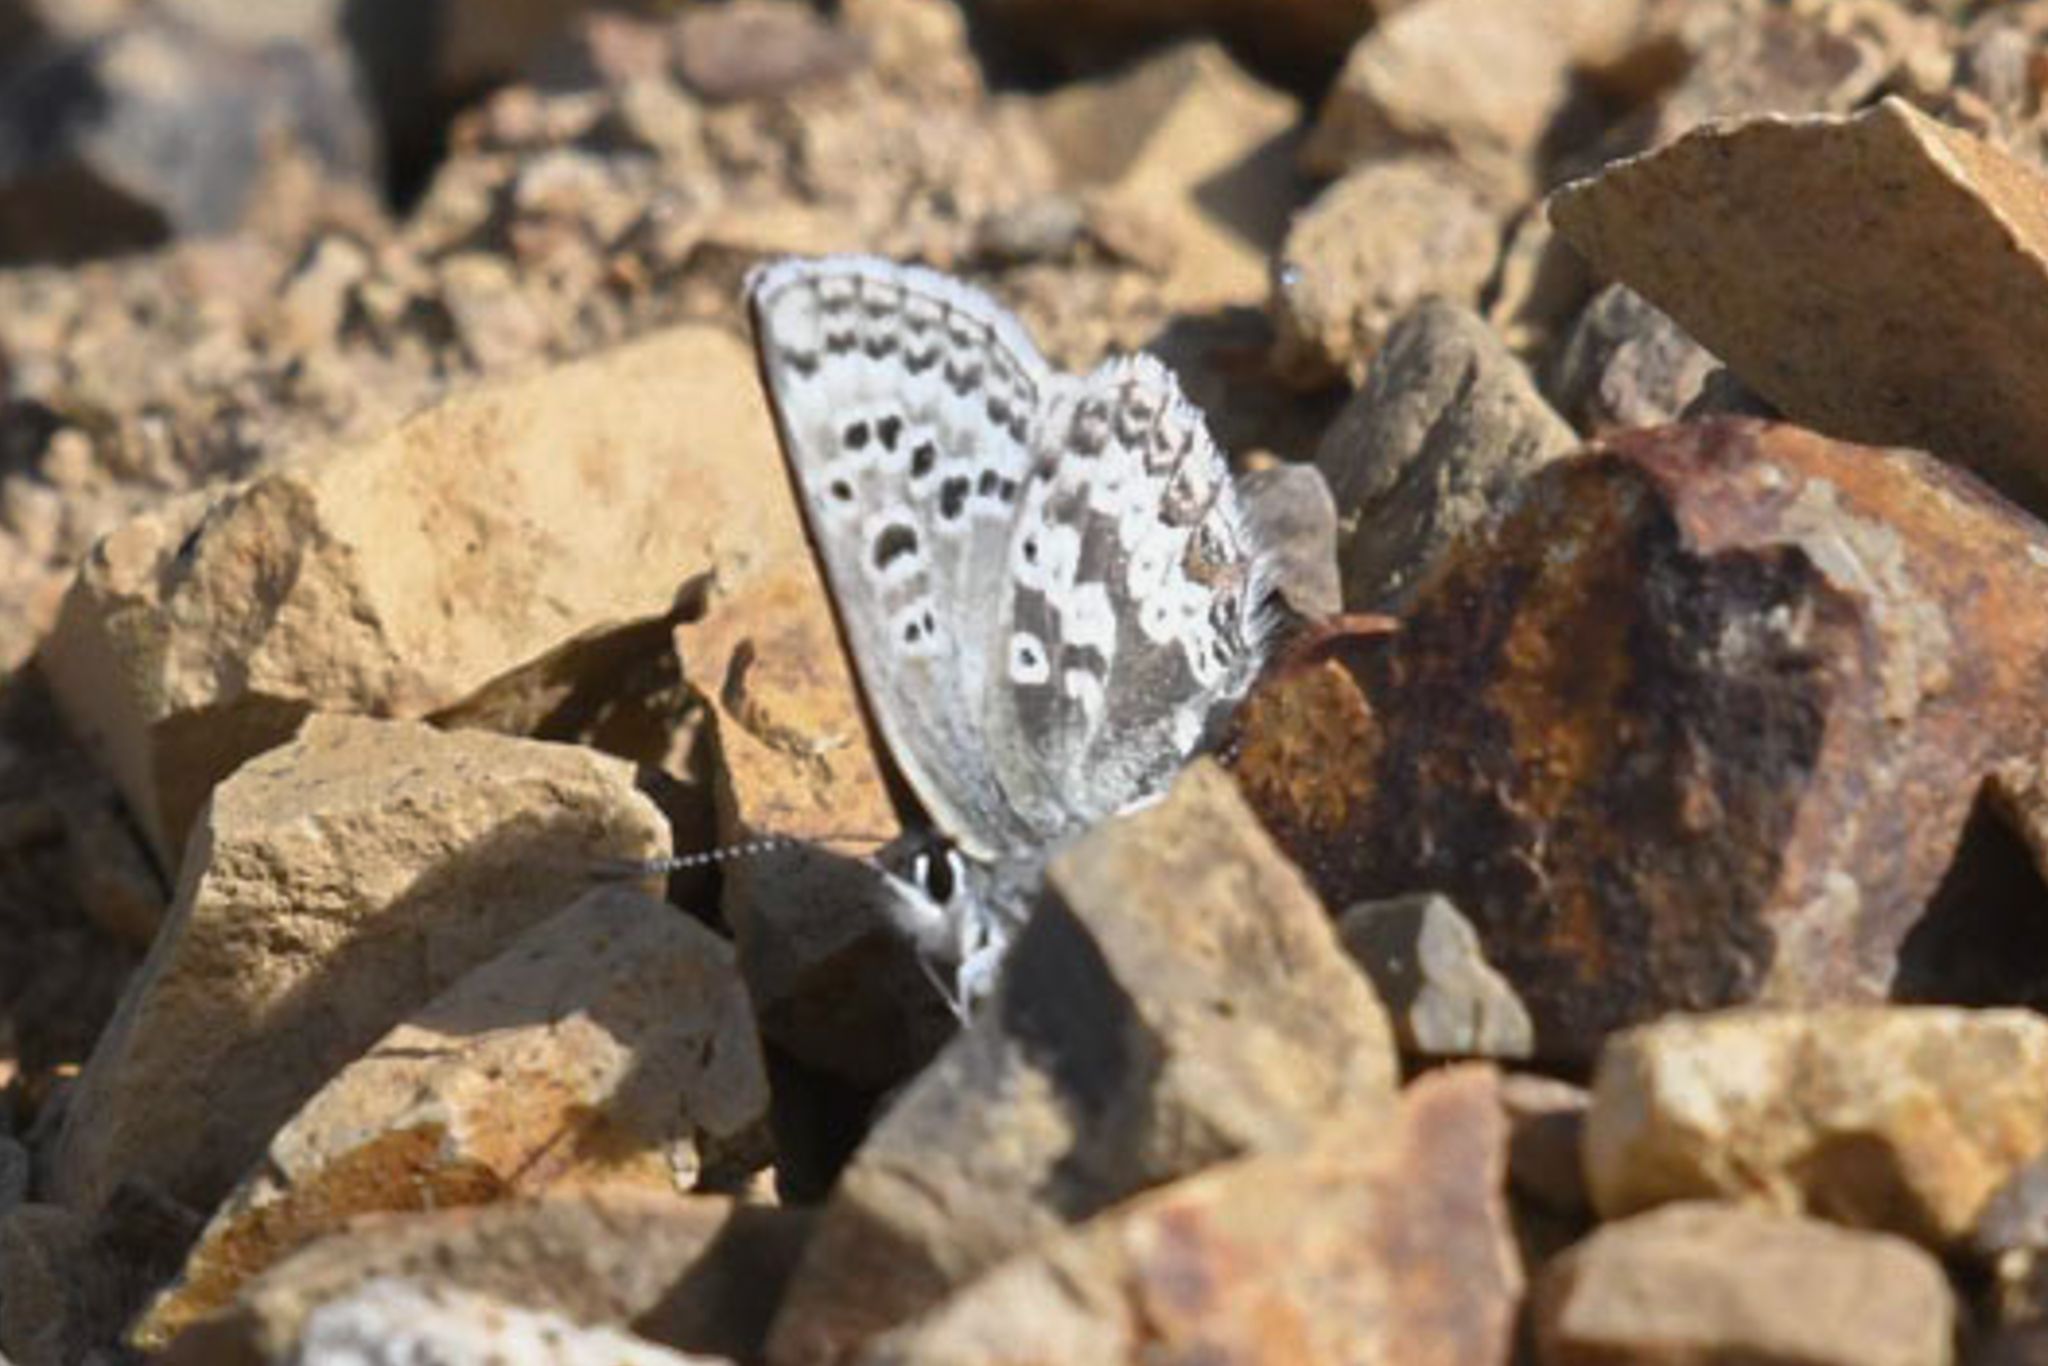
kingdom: Animalia
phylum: Arthropoda
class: Insecta
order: Lepidoptera
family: Lycaenidae
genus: Agriades
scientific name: Agriades glandon
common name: Glandon blue
